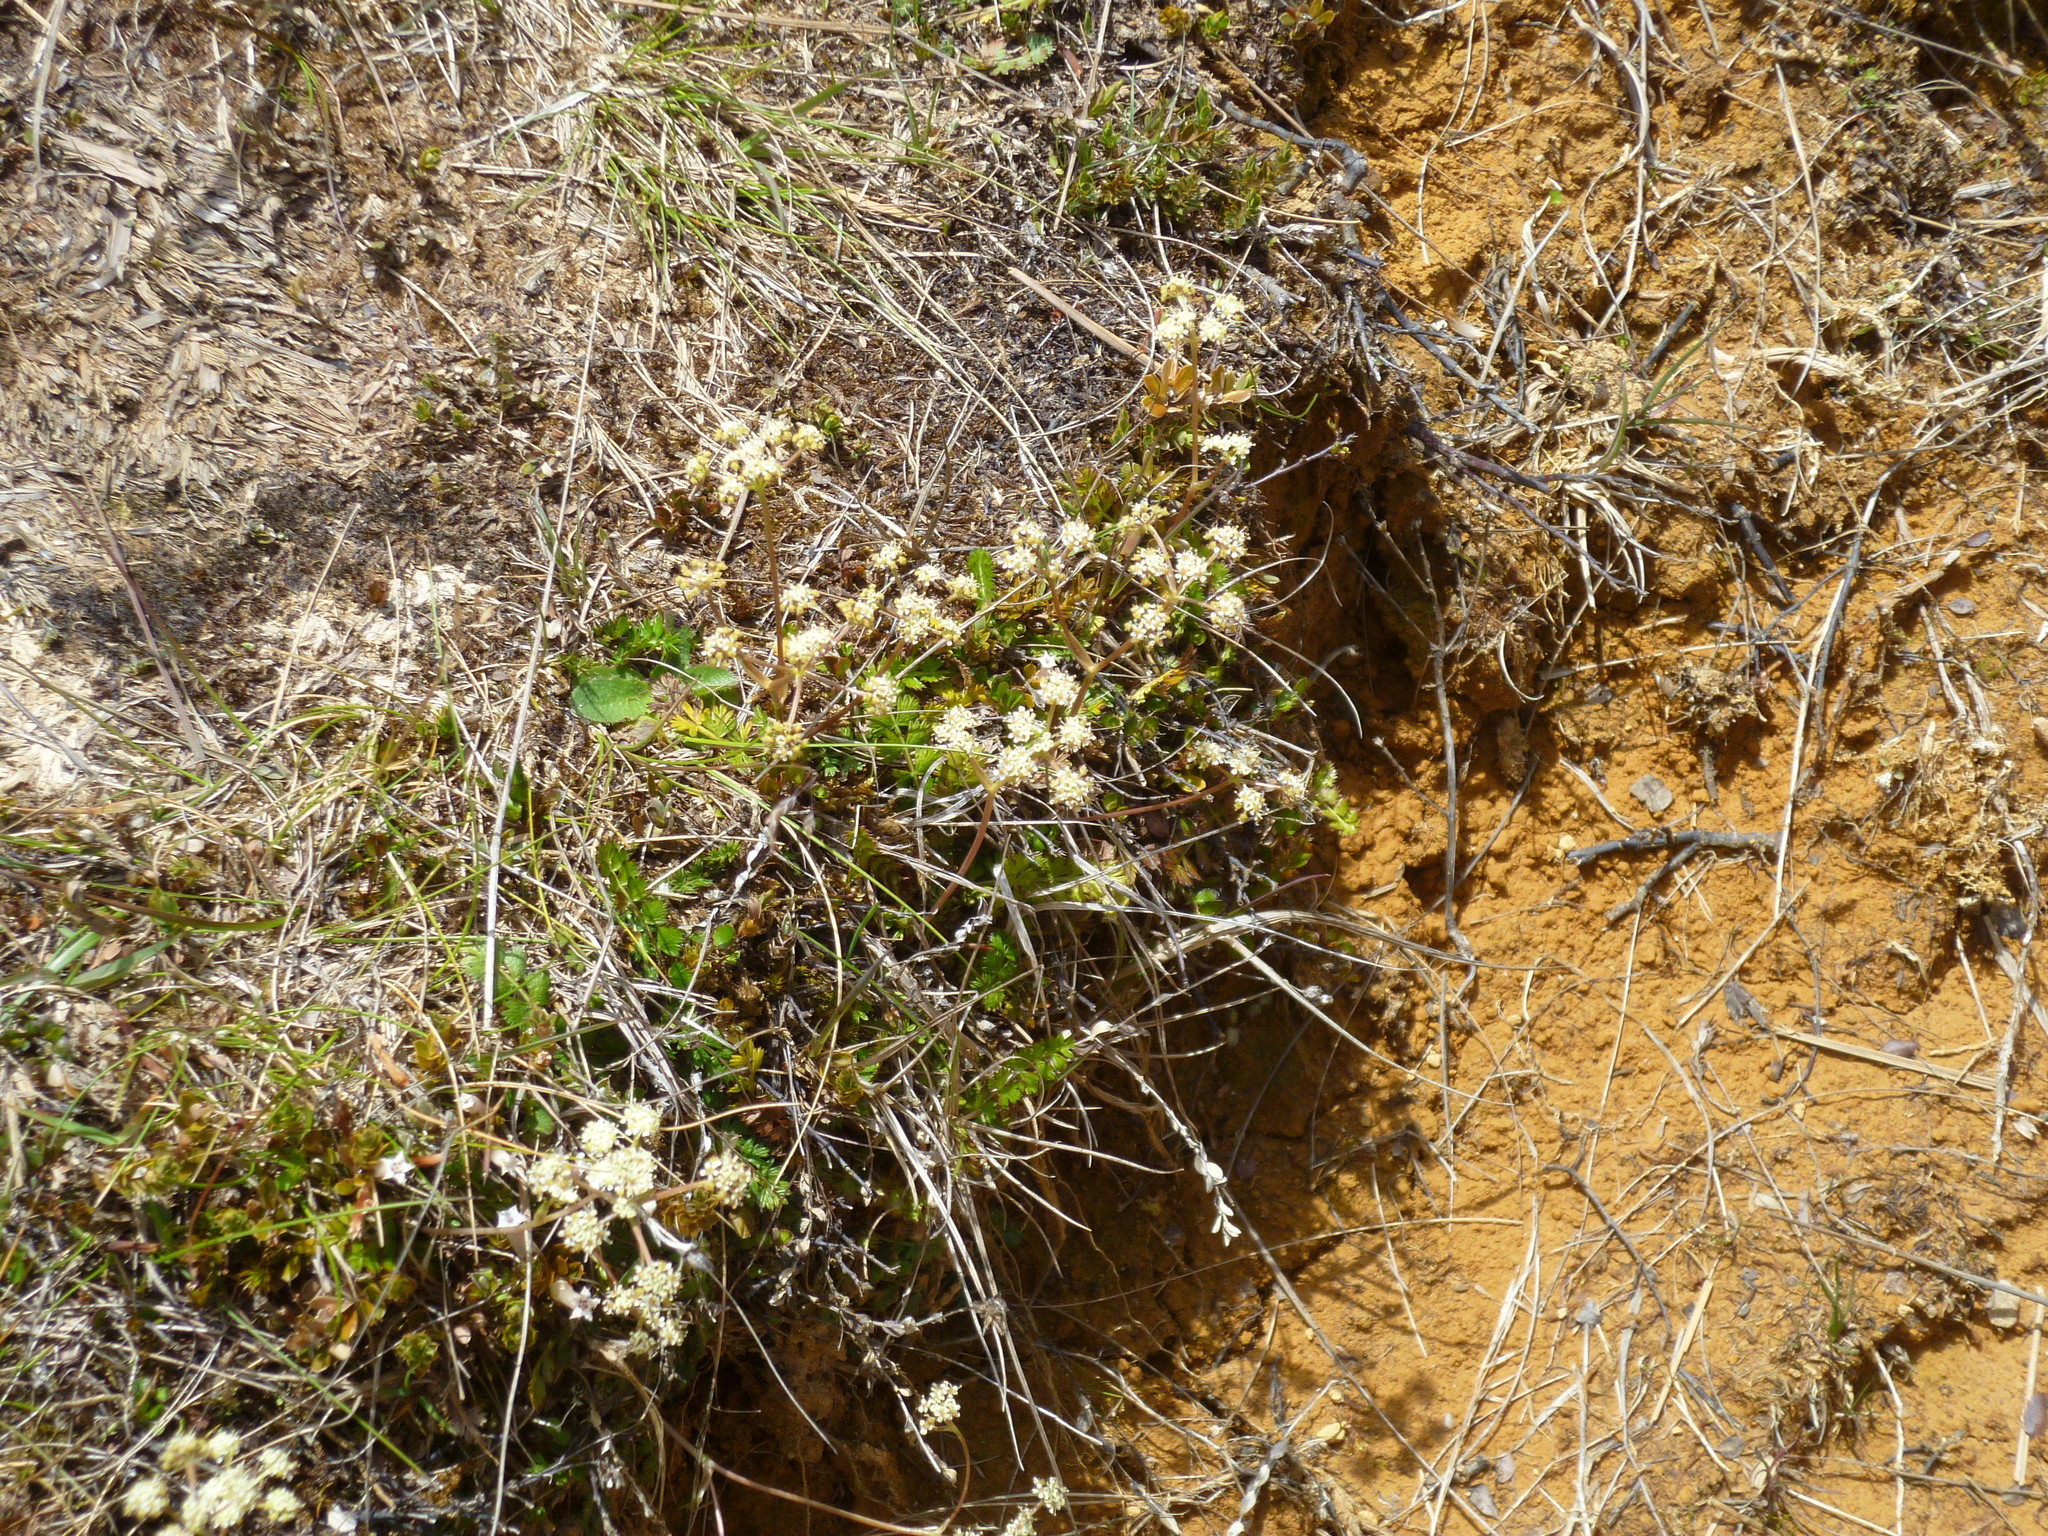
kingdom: Plantae
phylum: Tracheophyta
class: Magnoliopsida
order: Apiales
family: Apiaceae
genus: Anisotome
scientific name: Anisotome aromatica
